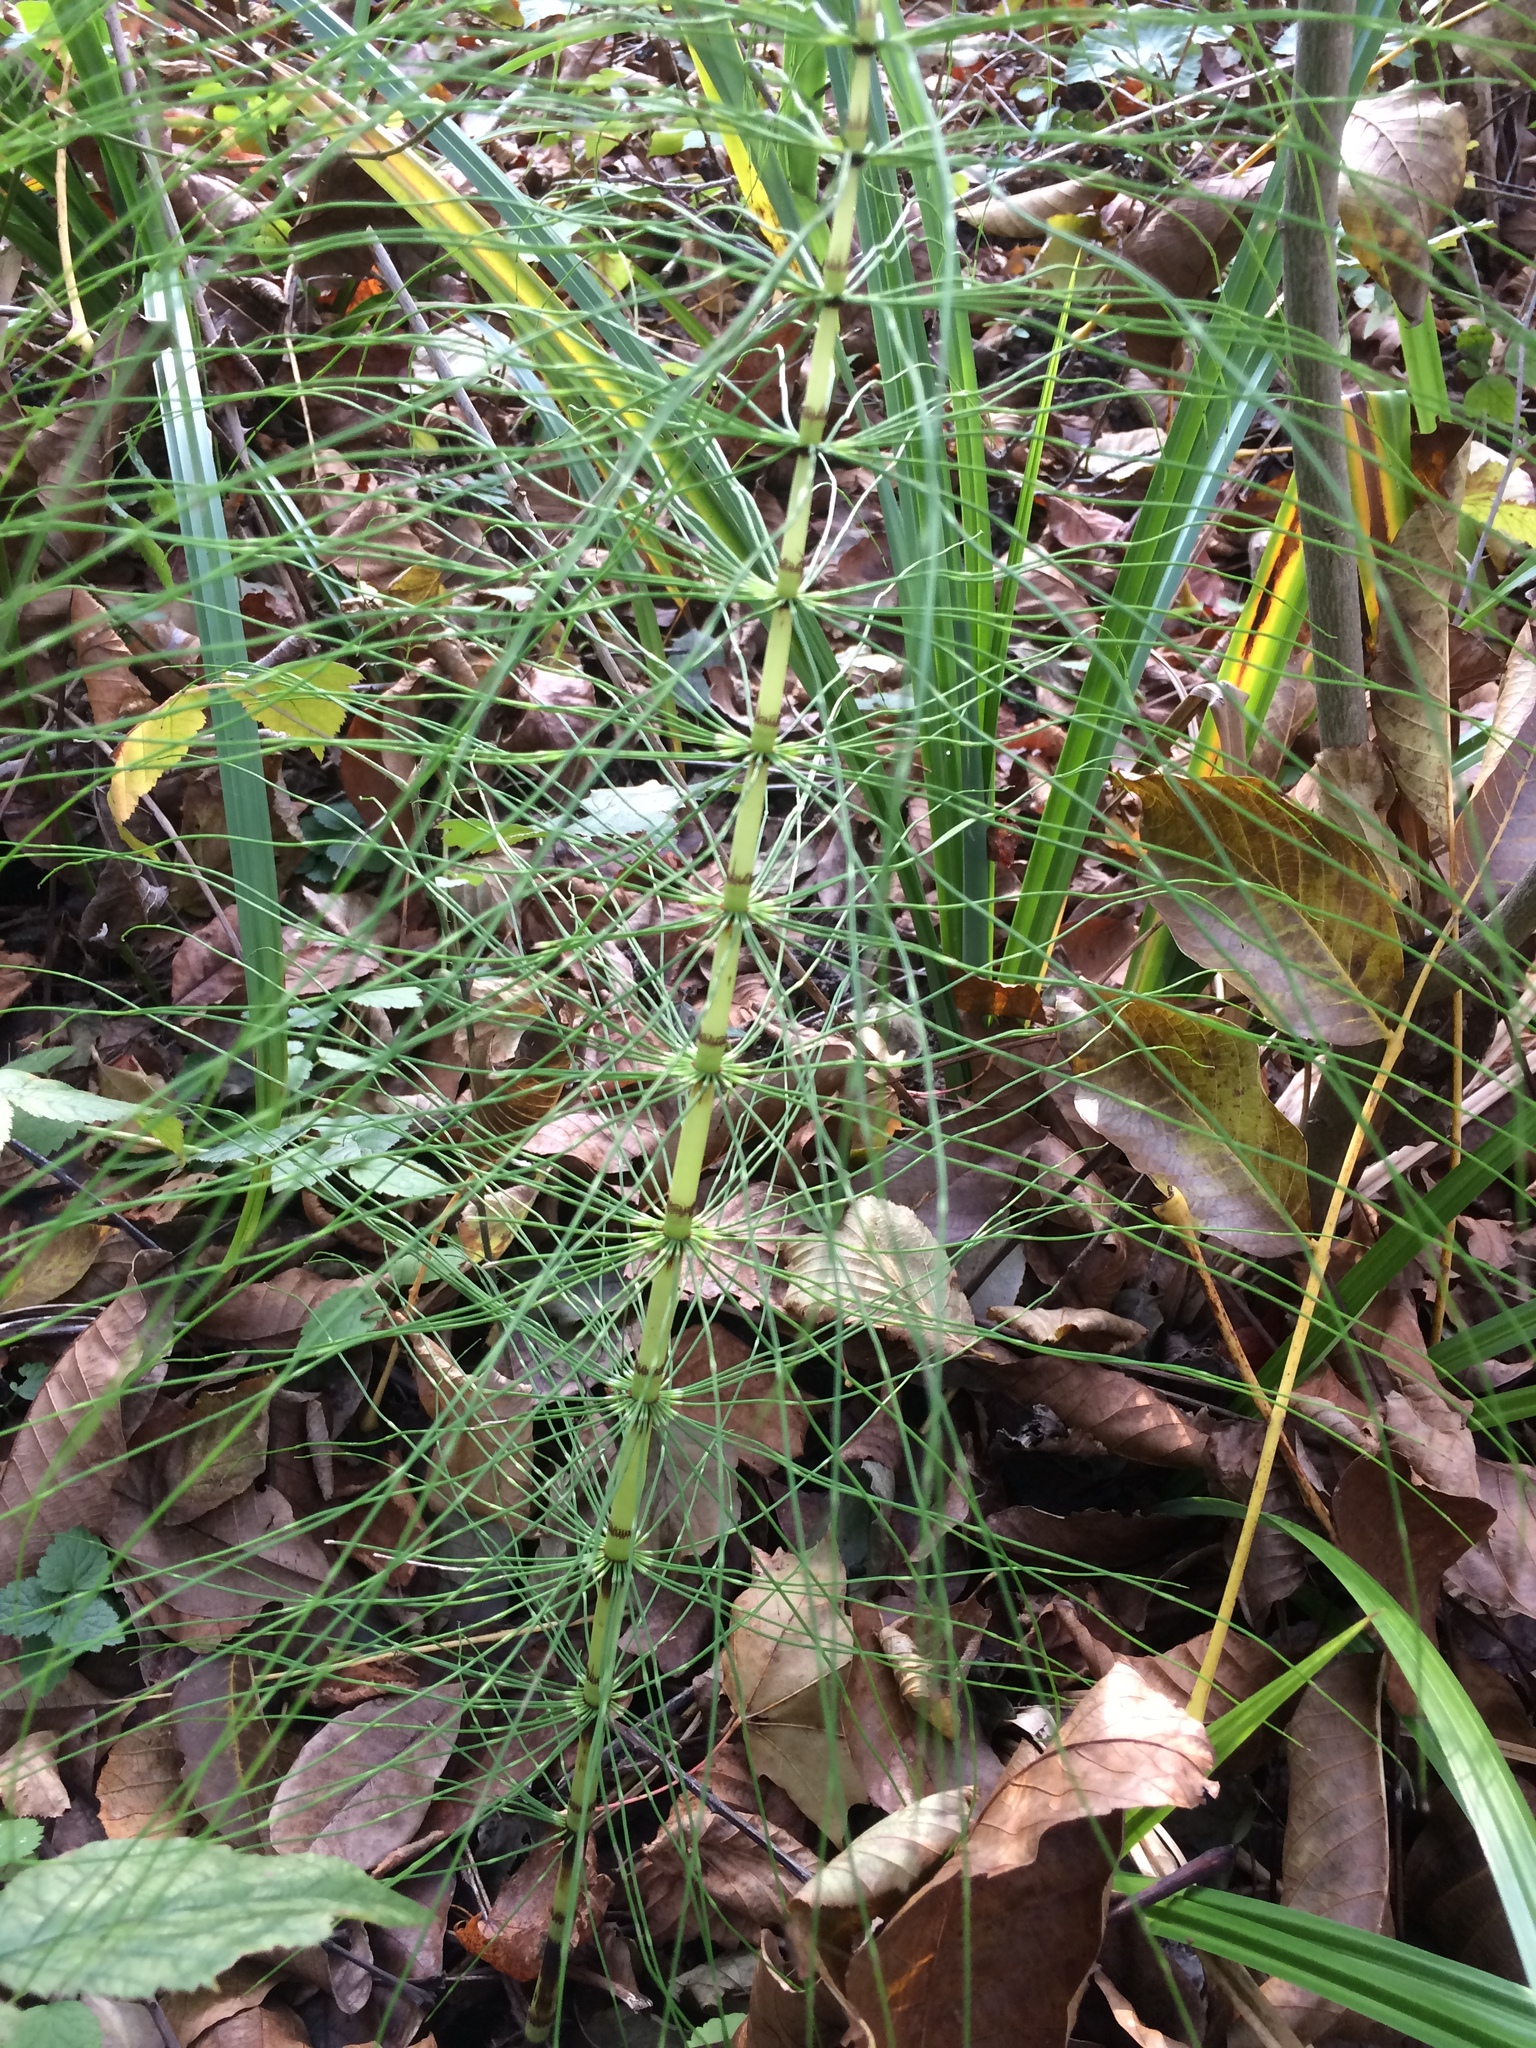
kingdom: Plantae
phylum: Tracheophyta
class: Polypodiopsida
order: Equisetales
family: Equisetaceae
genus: Equisetum
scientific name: Equisetum telmateia
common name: Great horsetail
